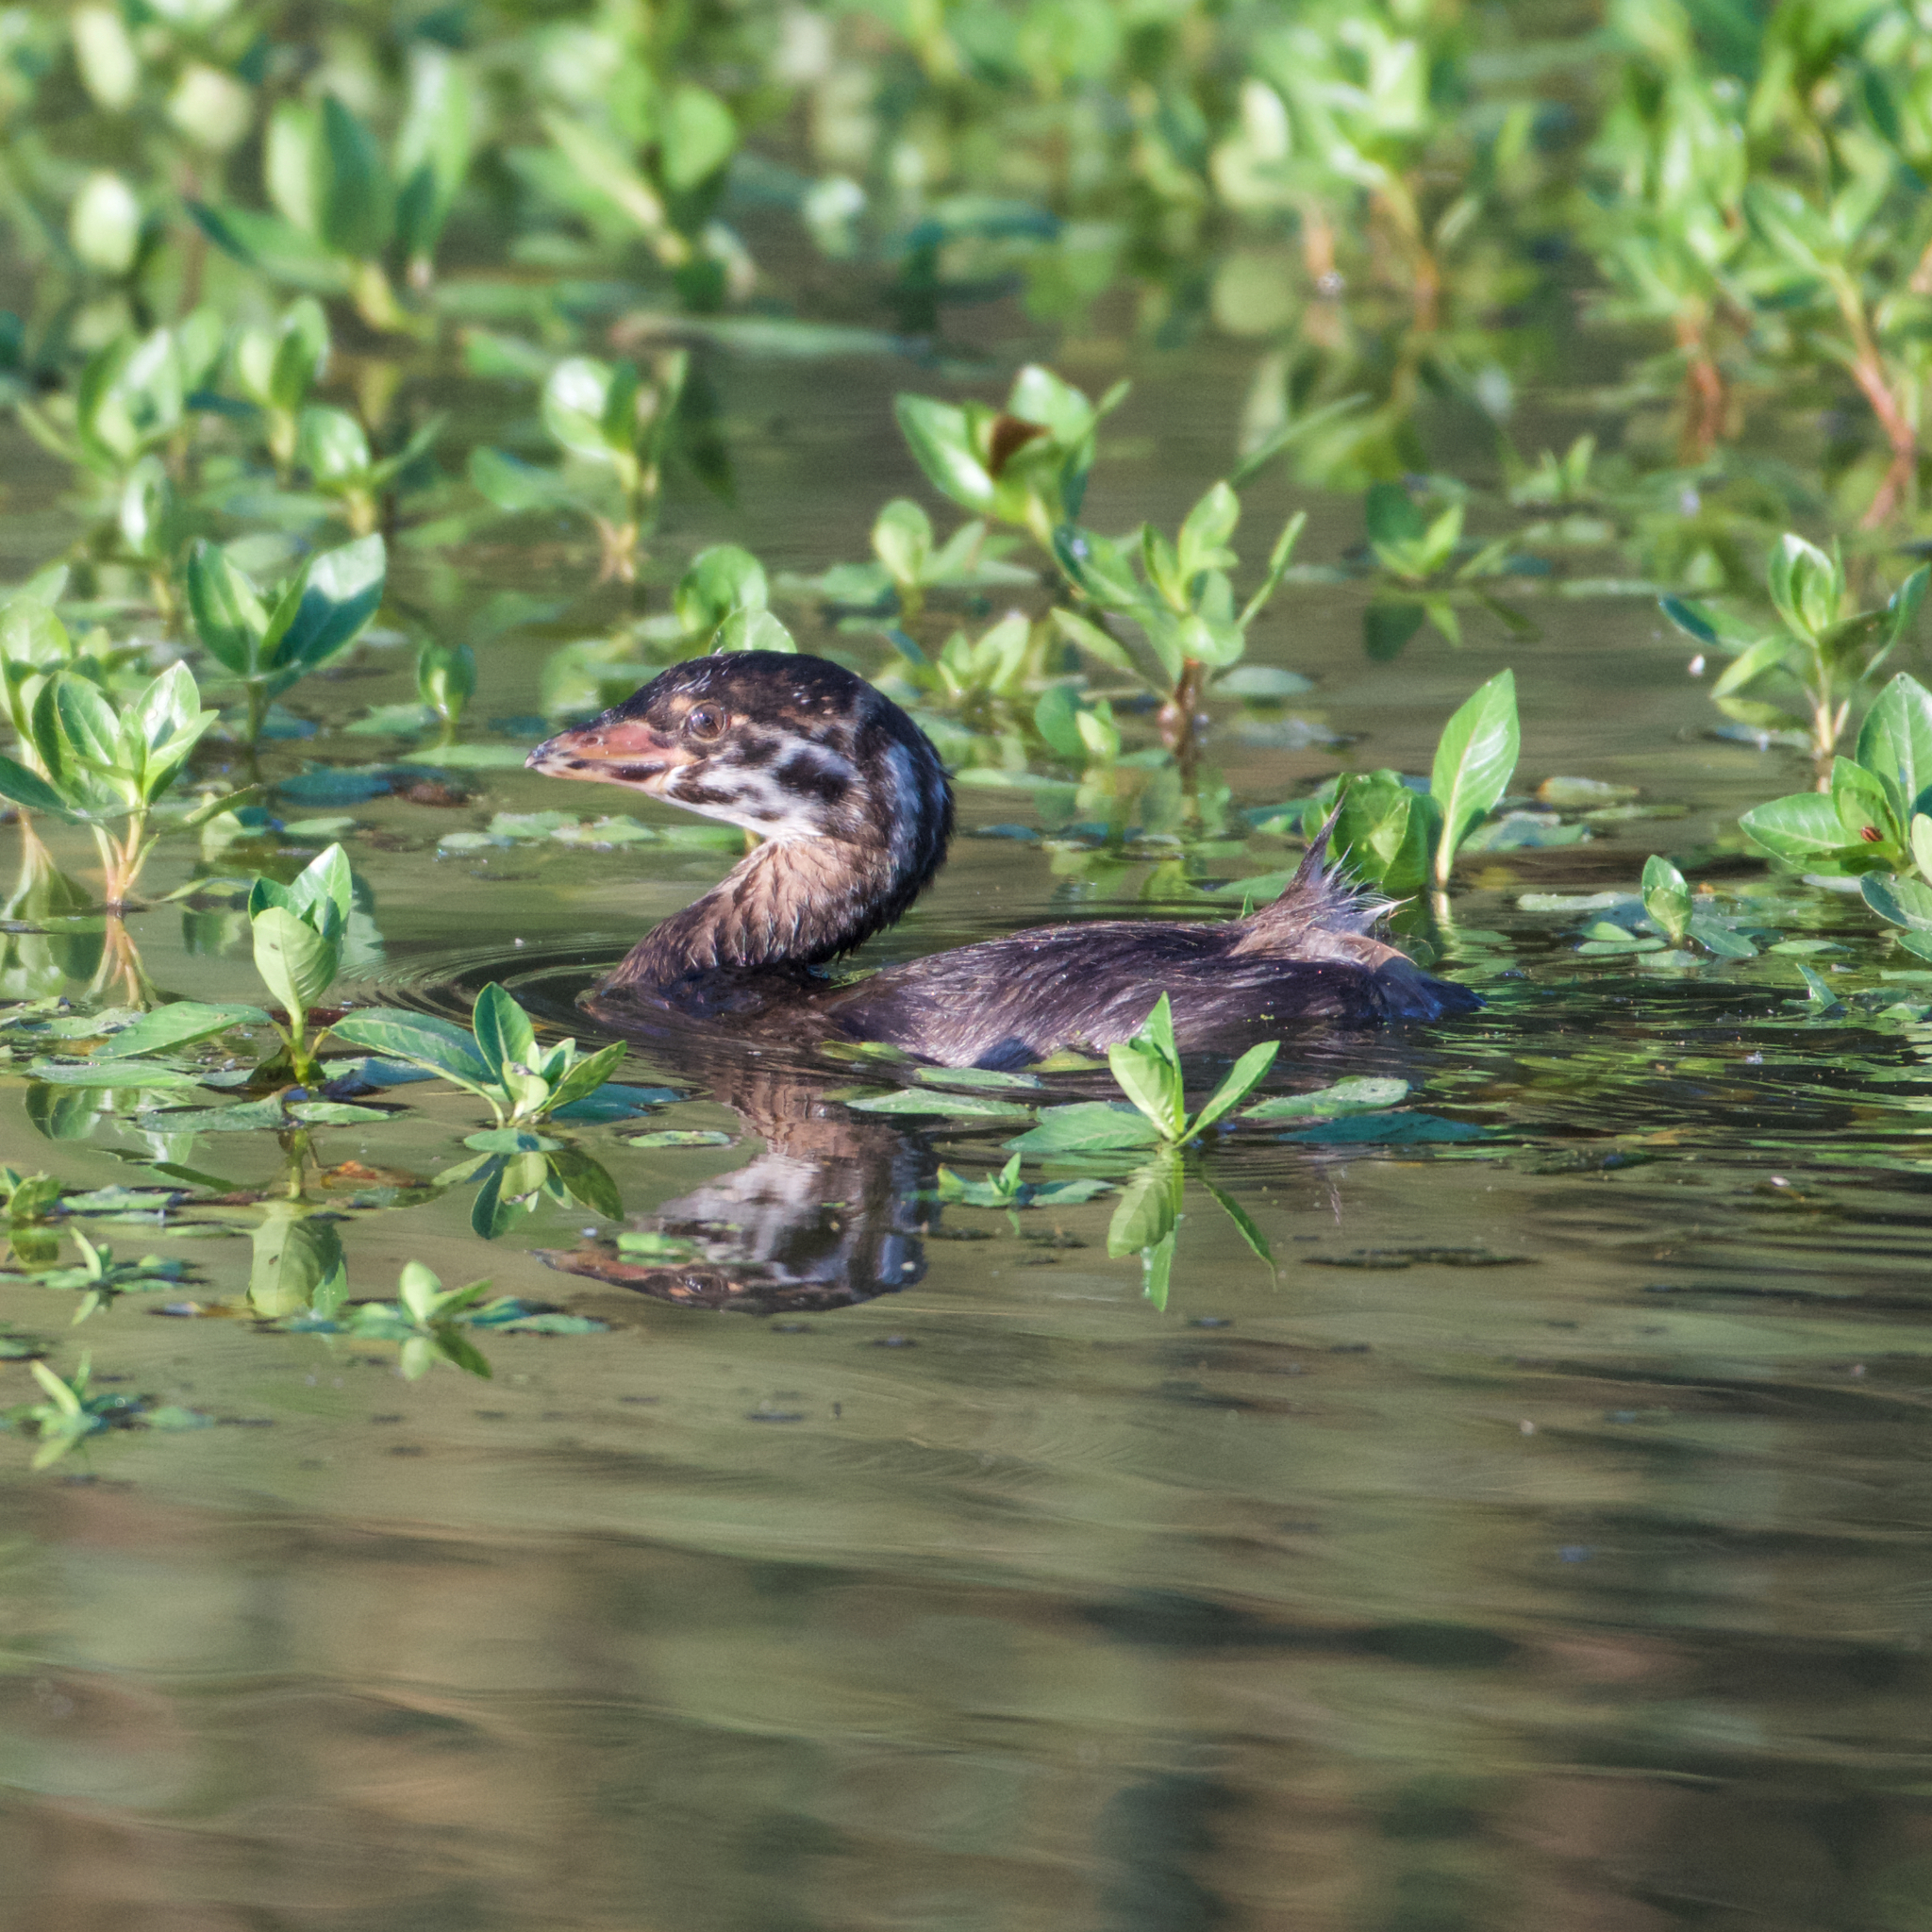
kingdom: Animalia
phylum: Chordata
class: Aves
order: Podicipediformes
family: Podicipedidae
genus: Podilymbus
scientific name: Podilymbus podiceps
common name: Pied-billed grebe
